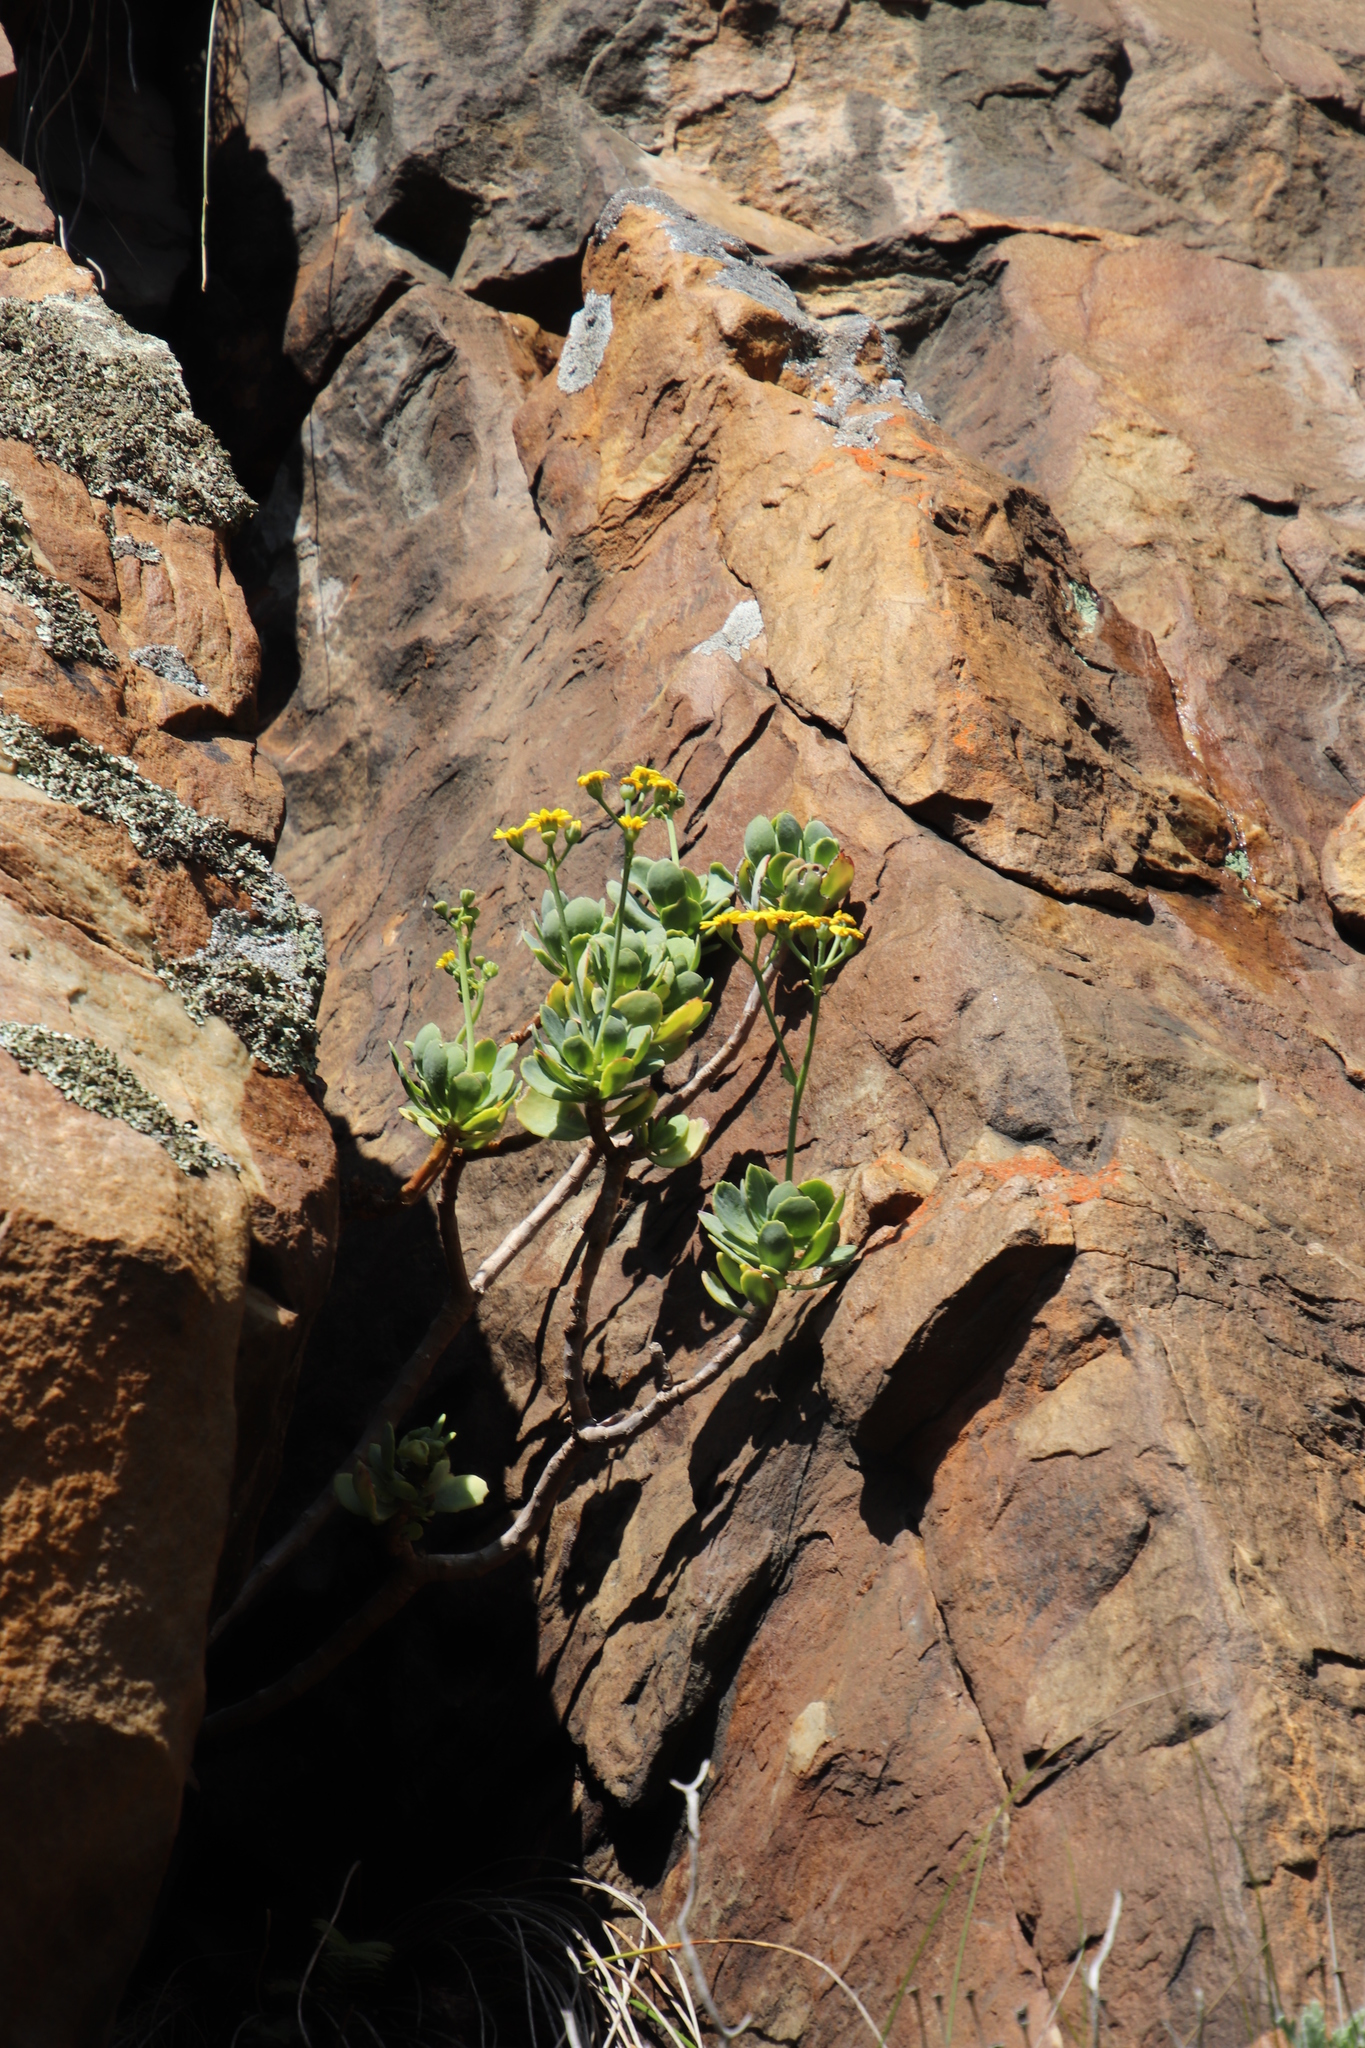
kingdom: Plantae
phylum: Tracheophyta
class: Magnoliopsida
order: Asterales
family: Asteraceae
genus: Othonna
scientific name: Othonna dentata
